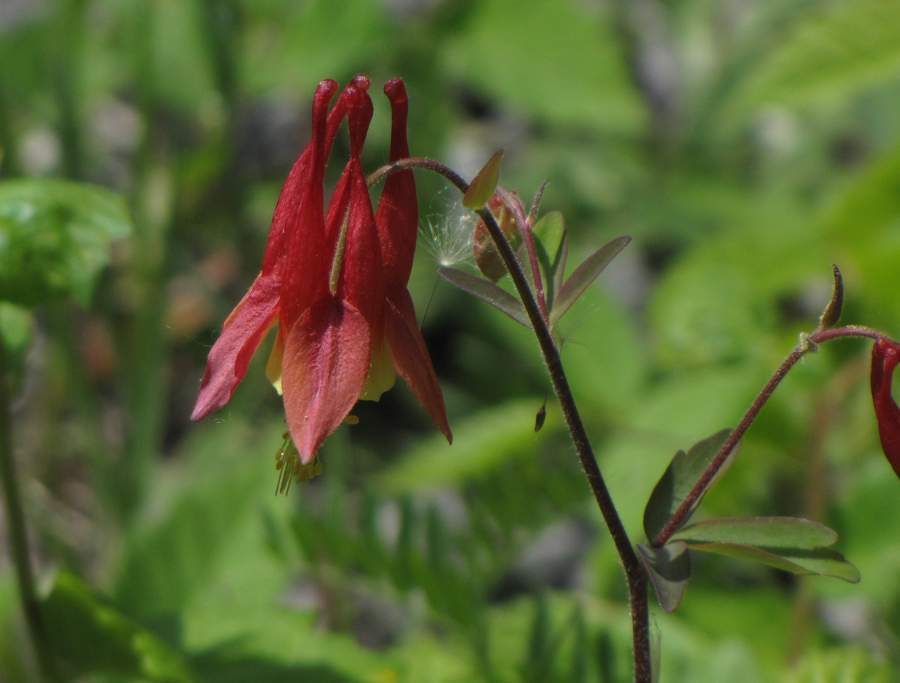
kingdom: Plantae
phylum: Tracheophyta
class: Magnoliopsida
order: Ranunculales
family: Ranunculaceae
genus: Aquilegia
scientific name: Aquilegia canadensis
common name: American columbine
